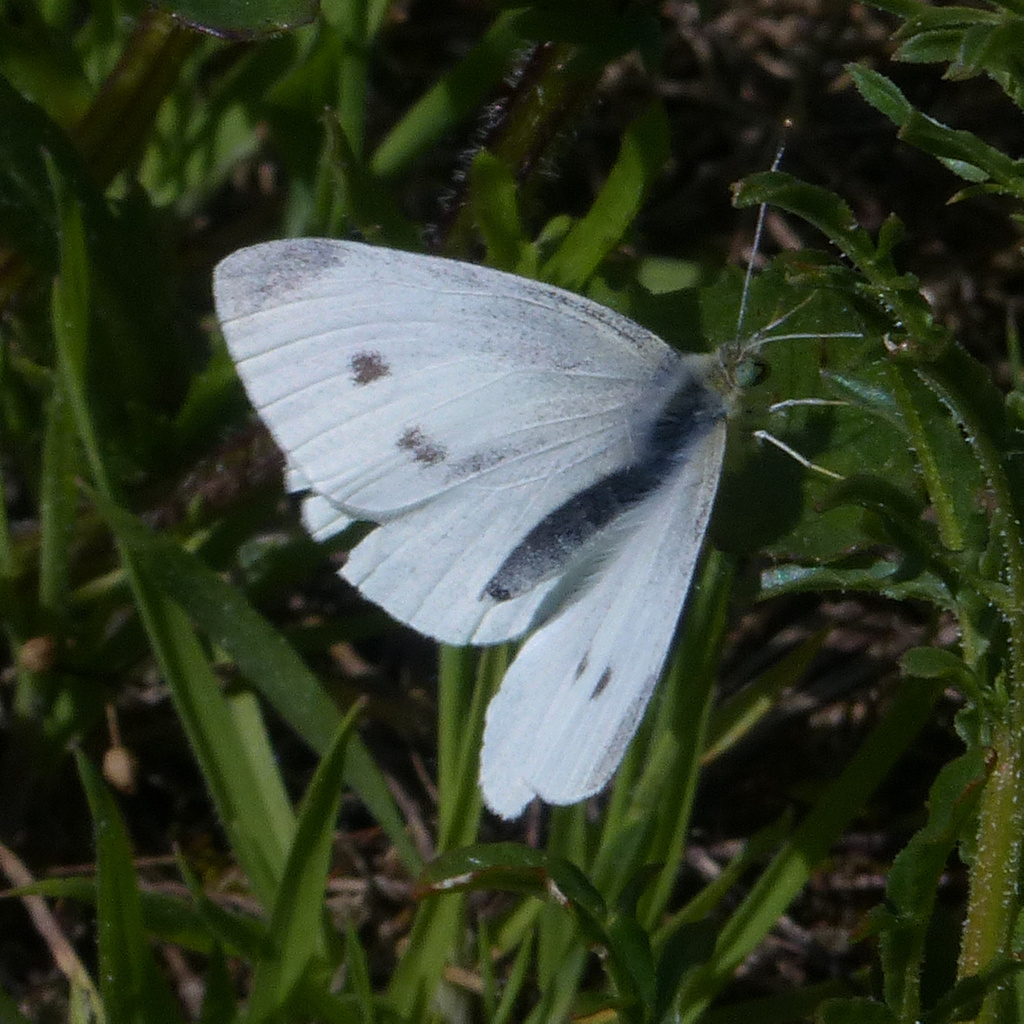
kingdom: Animalia
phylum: Arthropoda
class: Insecta
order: Lepidoptera
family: Pieridae
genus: Pieris
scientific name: Pieris rapae
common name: Small white
